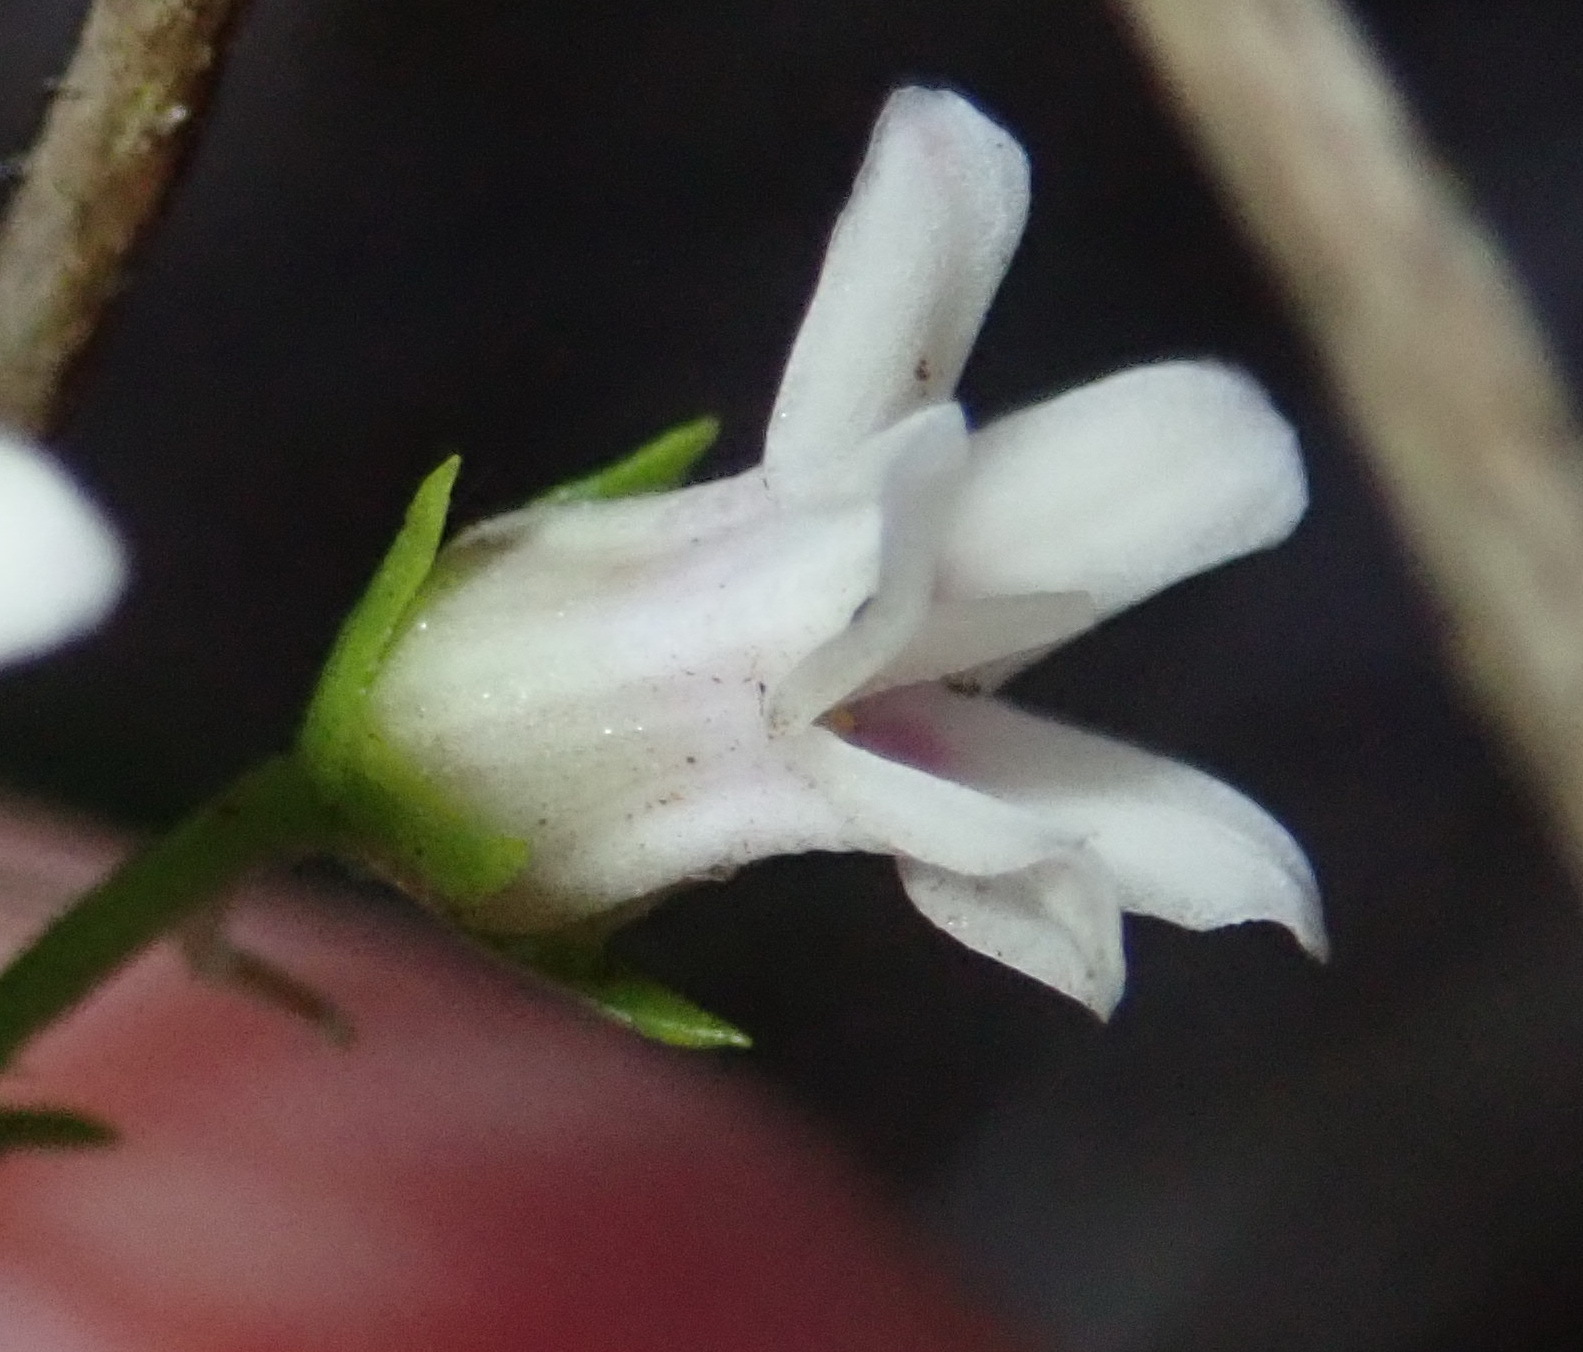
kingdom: Plantae
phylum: Tracheophyta
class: Magnoliopsida
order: Gentianales
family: Apocynaceae
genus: Astephanus
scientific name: Astephanus triflorus
